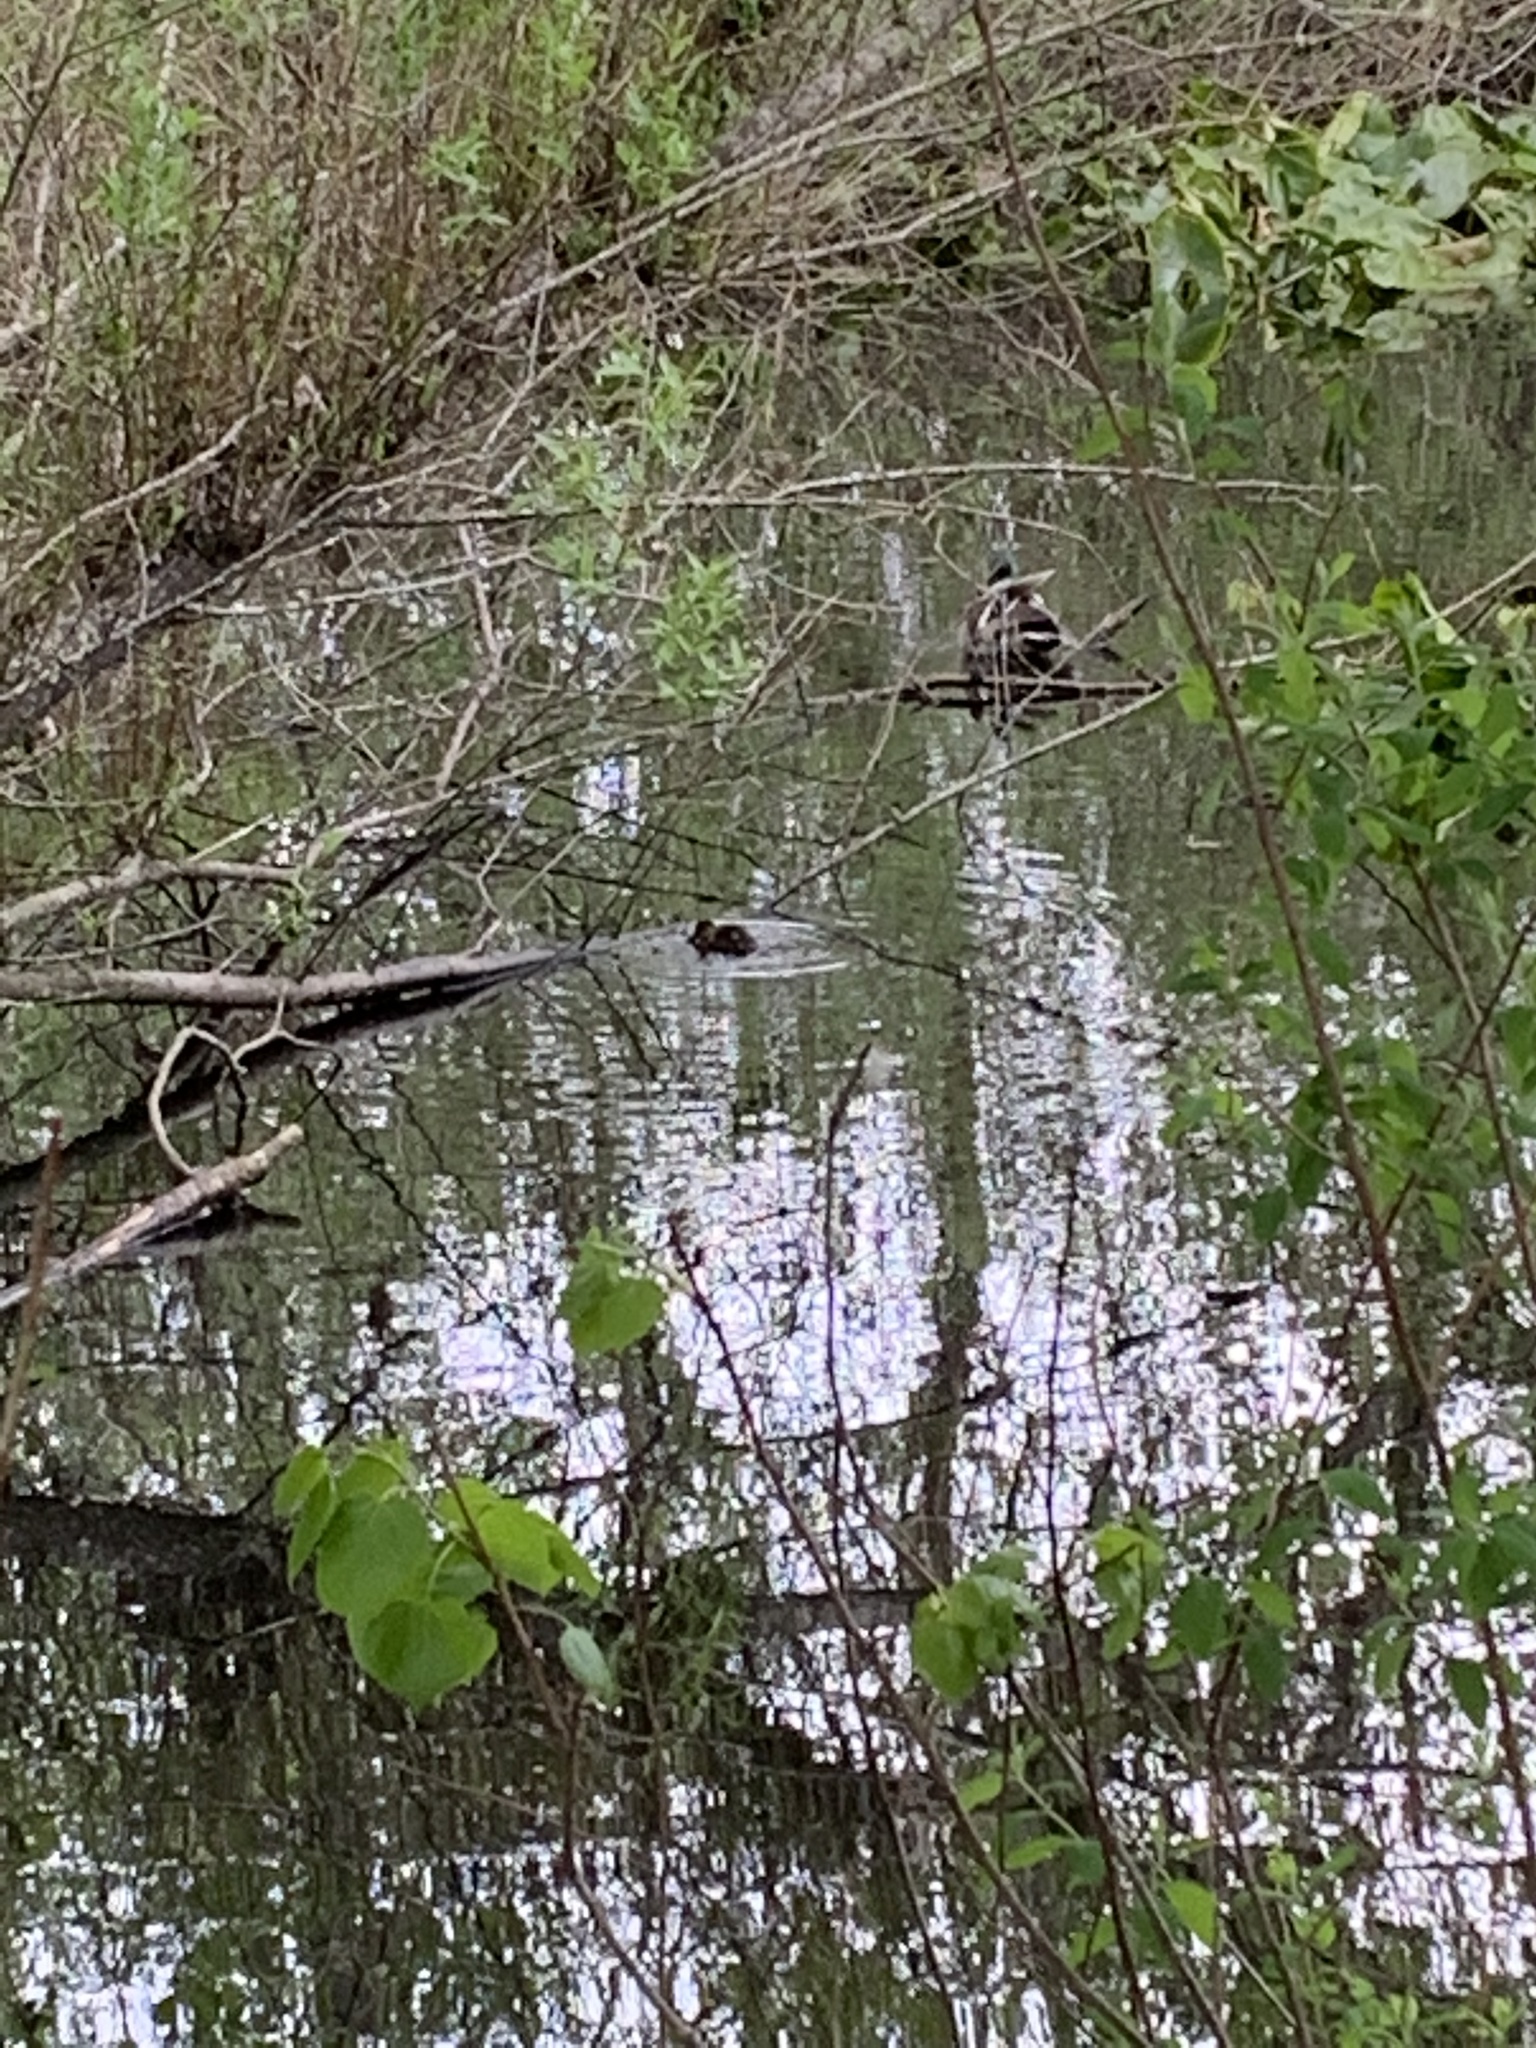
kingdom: Animalia
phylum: Chordata
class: Aves
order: Anseriformes
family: Anatidae
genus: Anas
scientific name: Anas platyrhynchos
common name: Mallard
